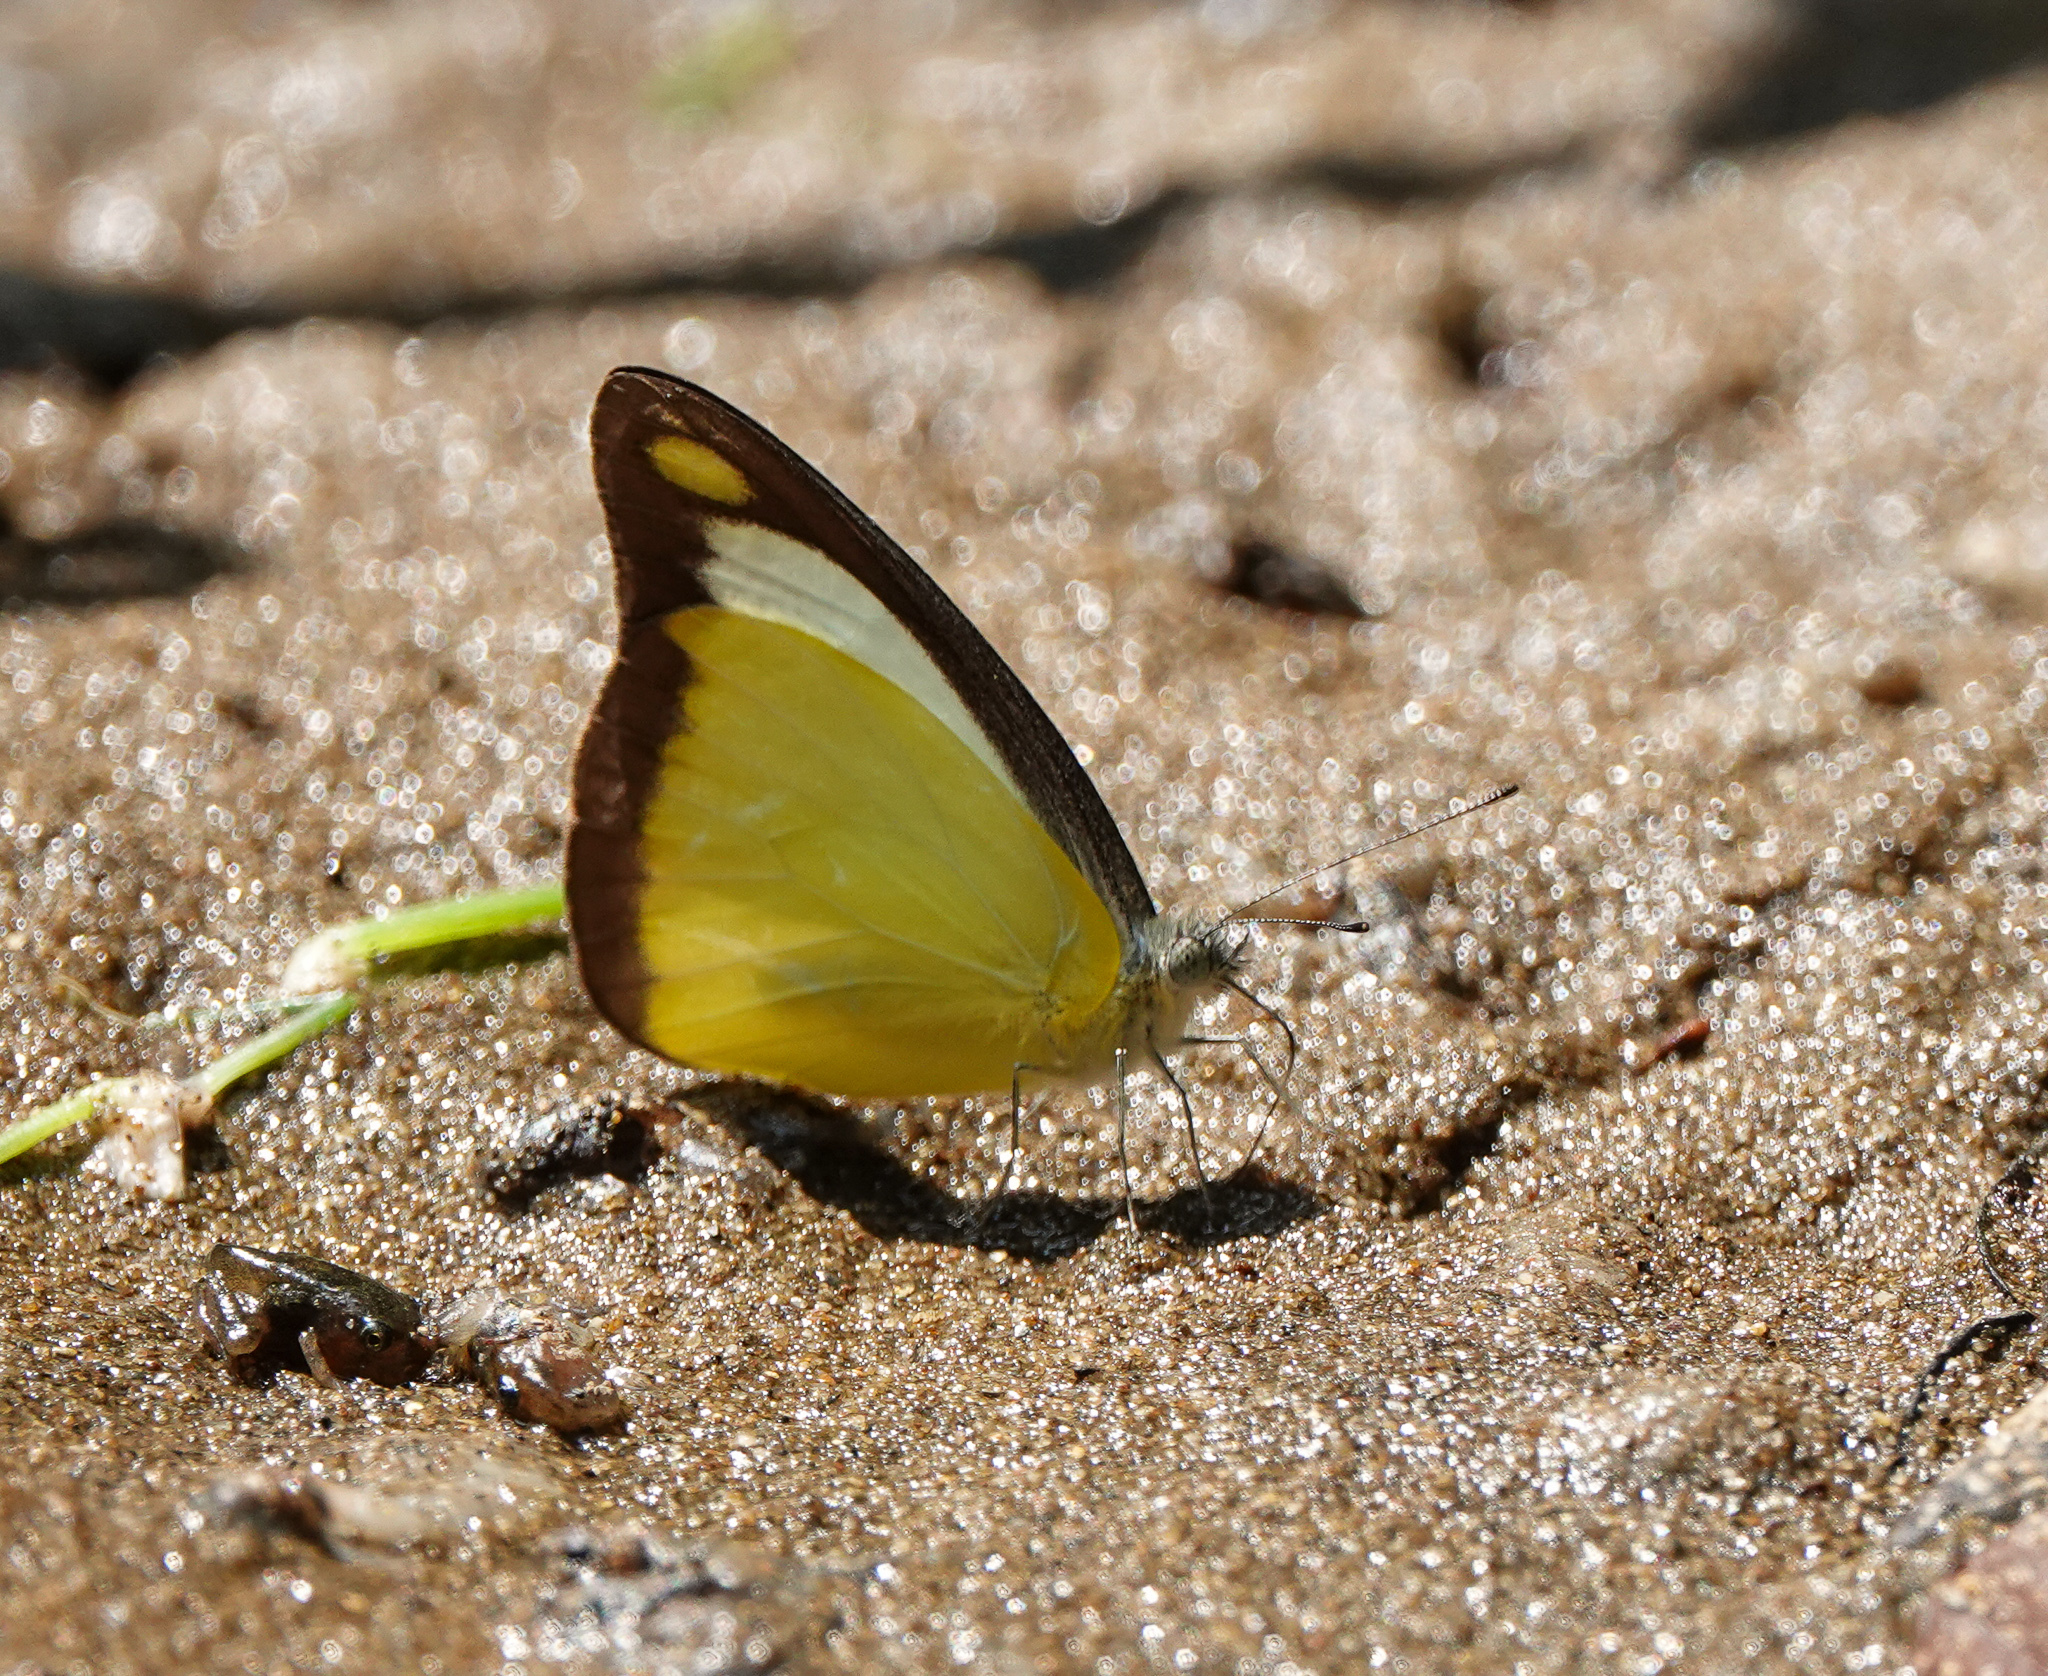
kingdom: Animalia
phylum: Arthropoda
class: Insecta
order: Lepidoptera
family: Pieridae
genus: Appias
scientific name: Appias lyncida
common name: Chocolate albatross
